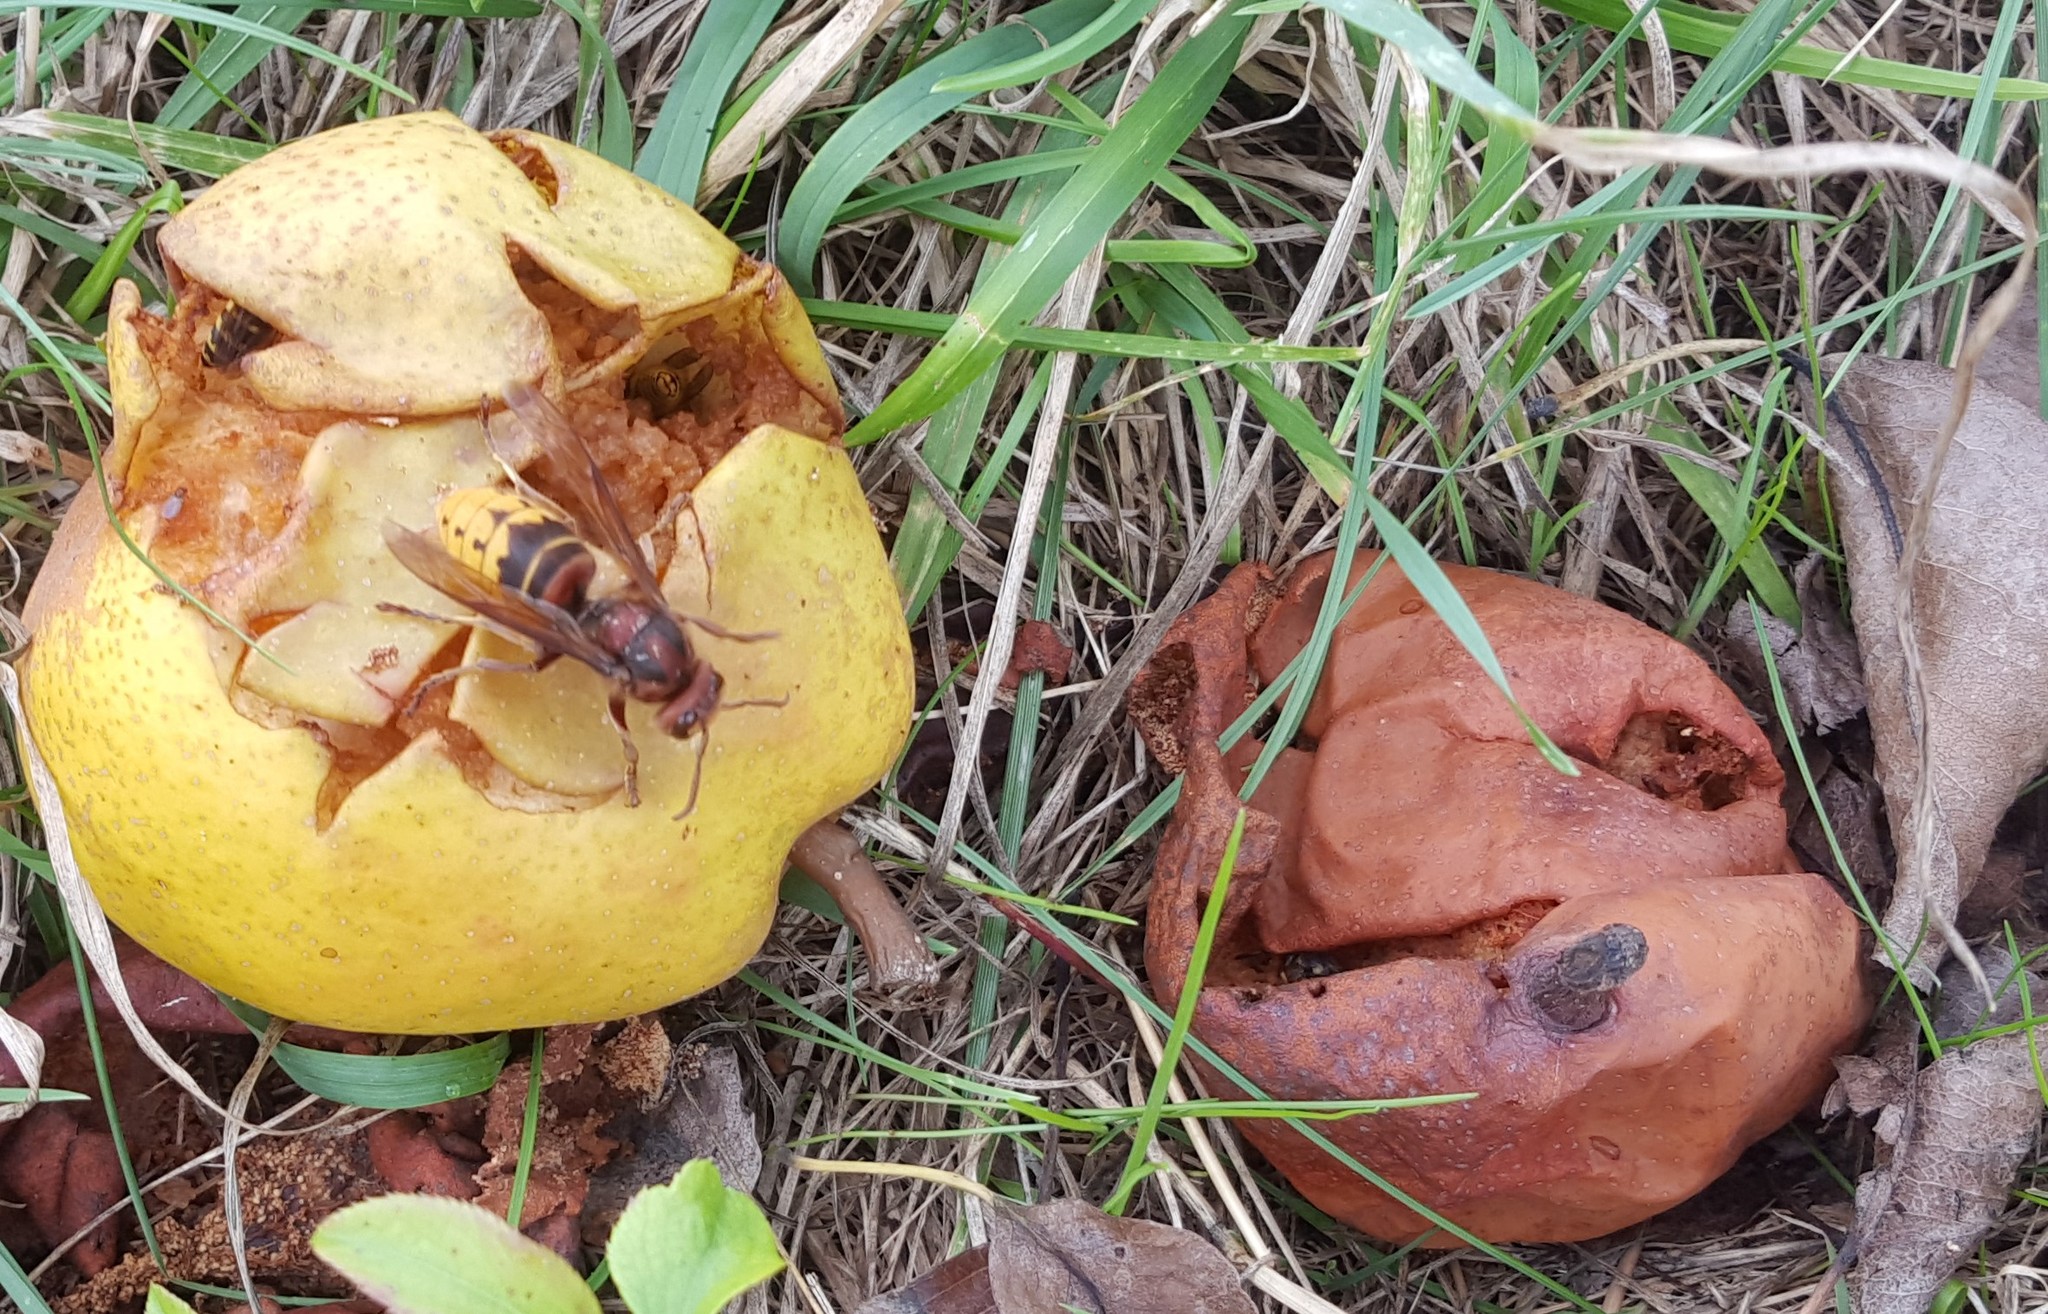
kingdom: Animalia
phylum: Arthropoda
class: Insecta
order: Hymenoptera
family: Vespidae
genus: Vespa
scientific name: Vespa crabro
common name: Hornet
